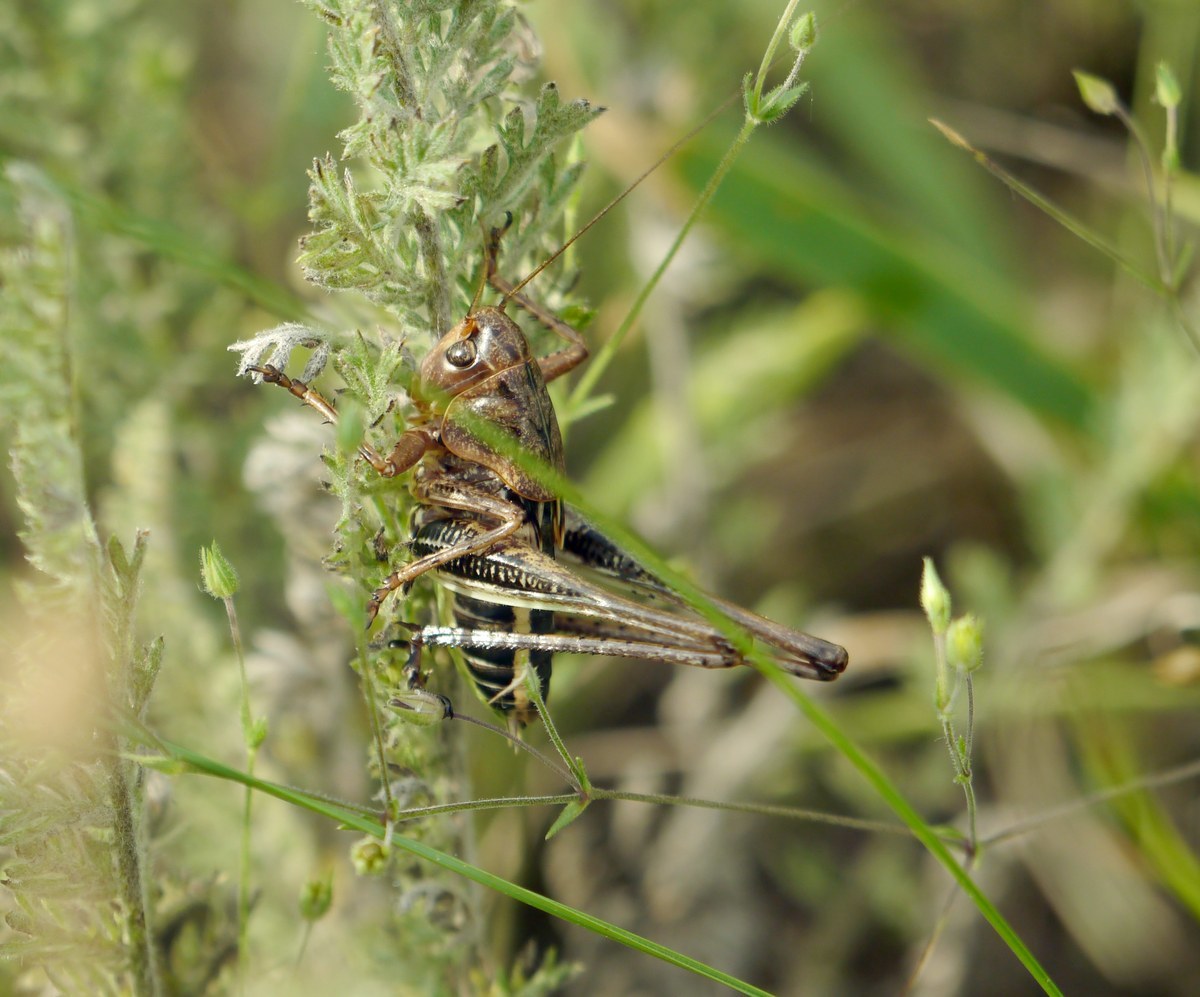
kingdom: Animalia
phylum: Arthropoda
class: Insecta
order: Orthoptera
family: Tettigoniidae
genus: Decticus
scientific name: Decticus albifrons
